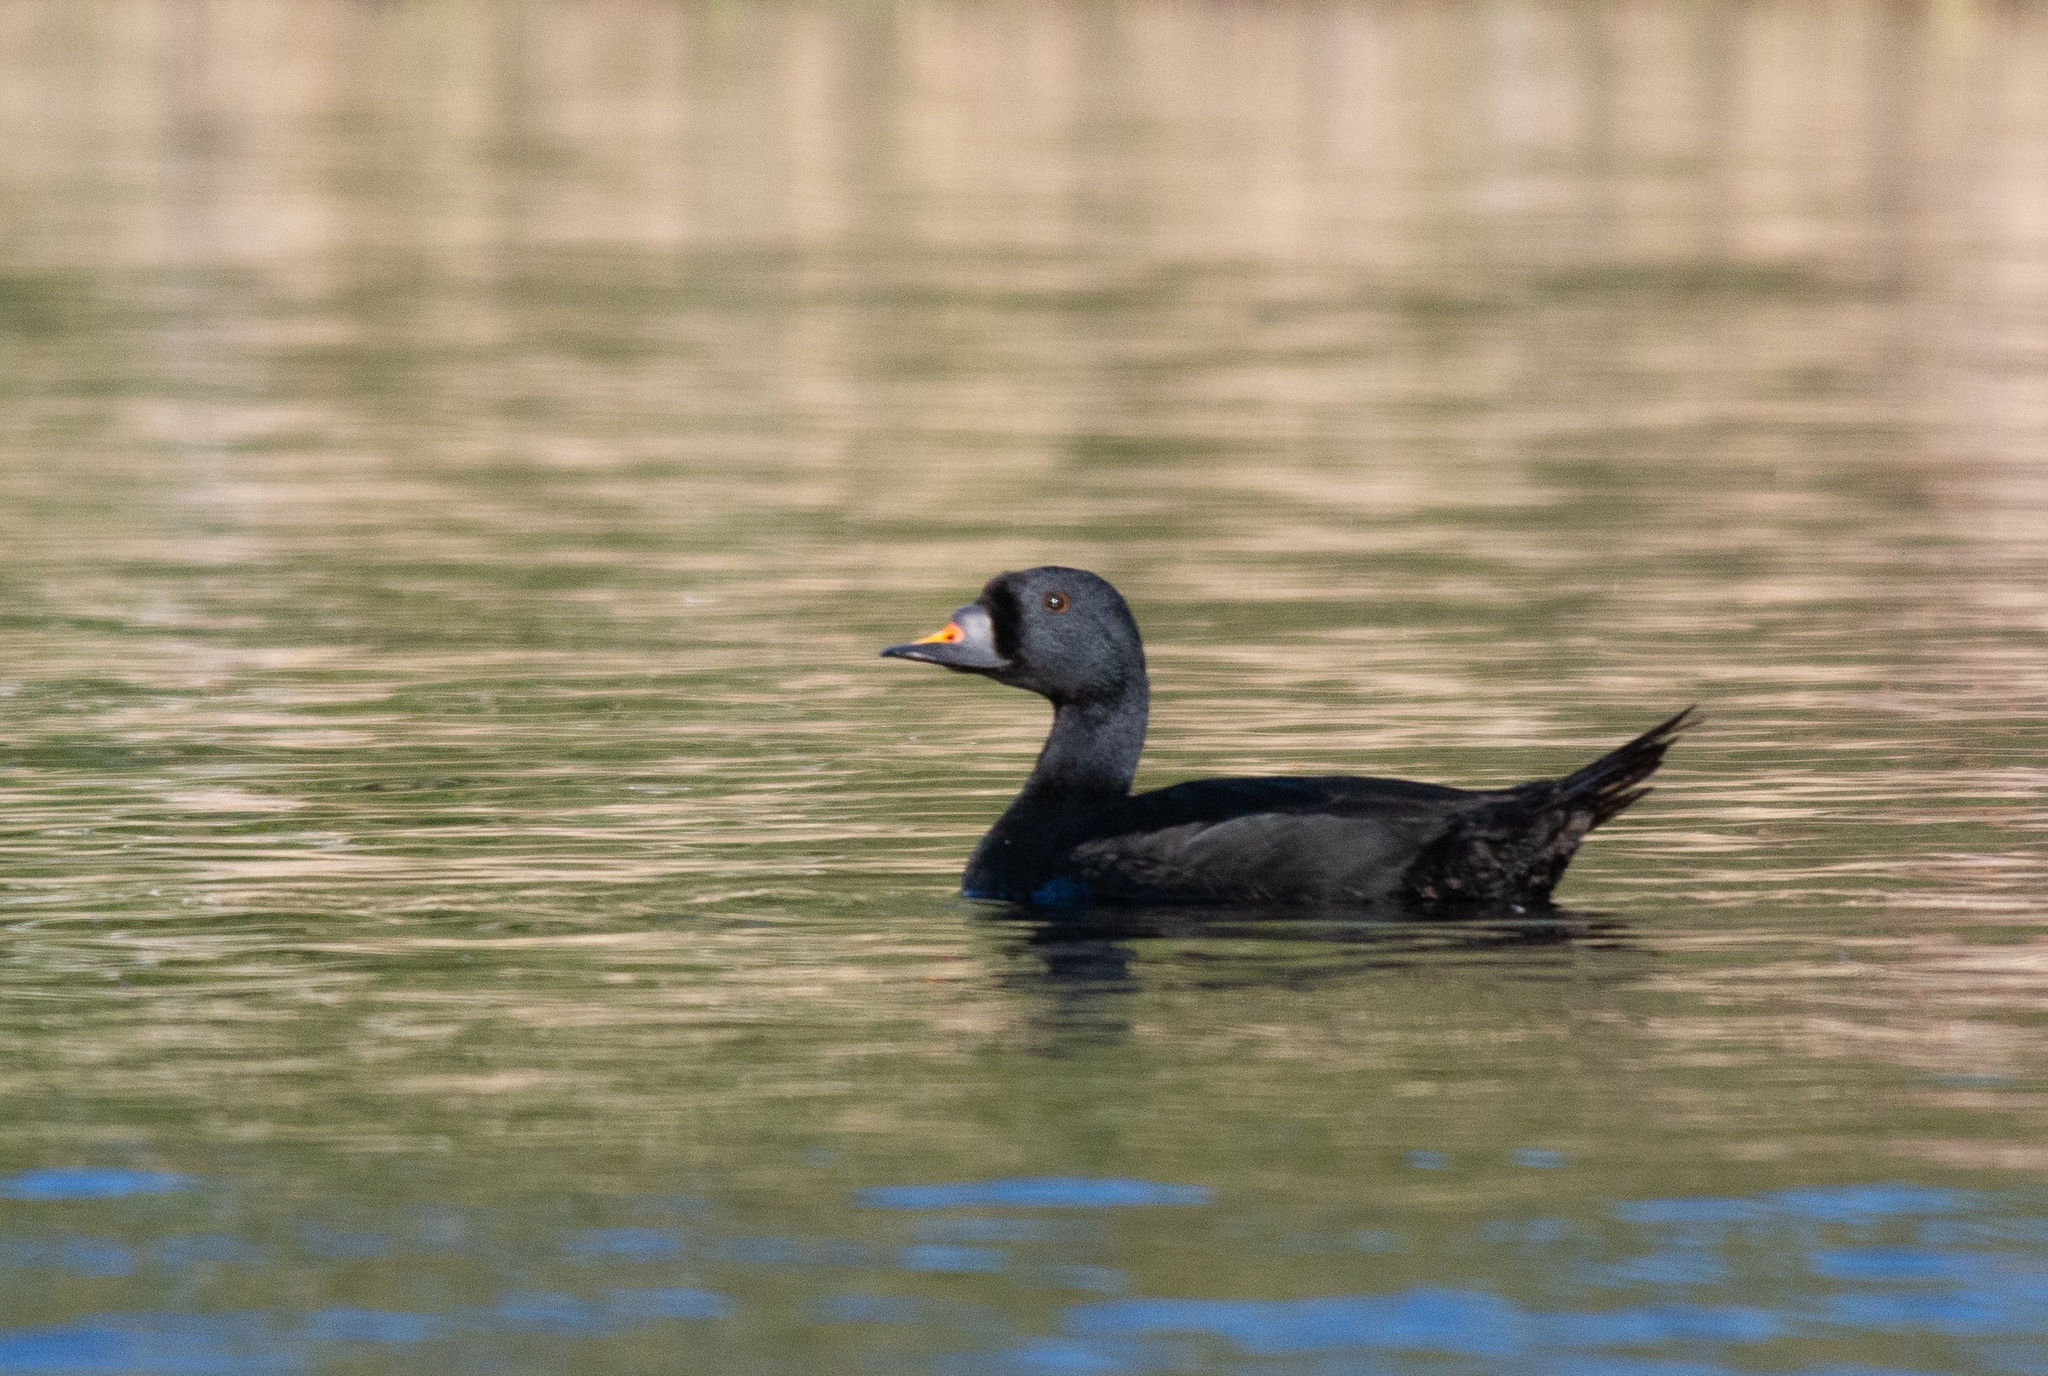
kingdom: Animalia
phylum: Chordata
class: Aves
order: Anseriformes
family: Anatidae
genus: Melanitta
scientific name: Melanitta nigra
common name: Common scoter
